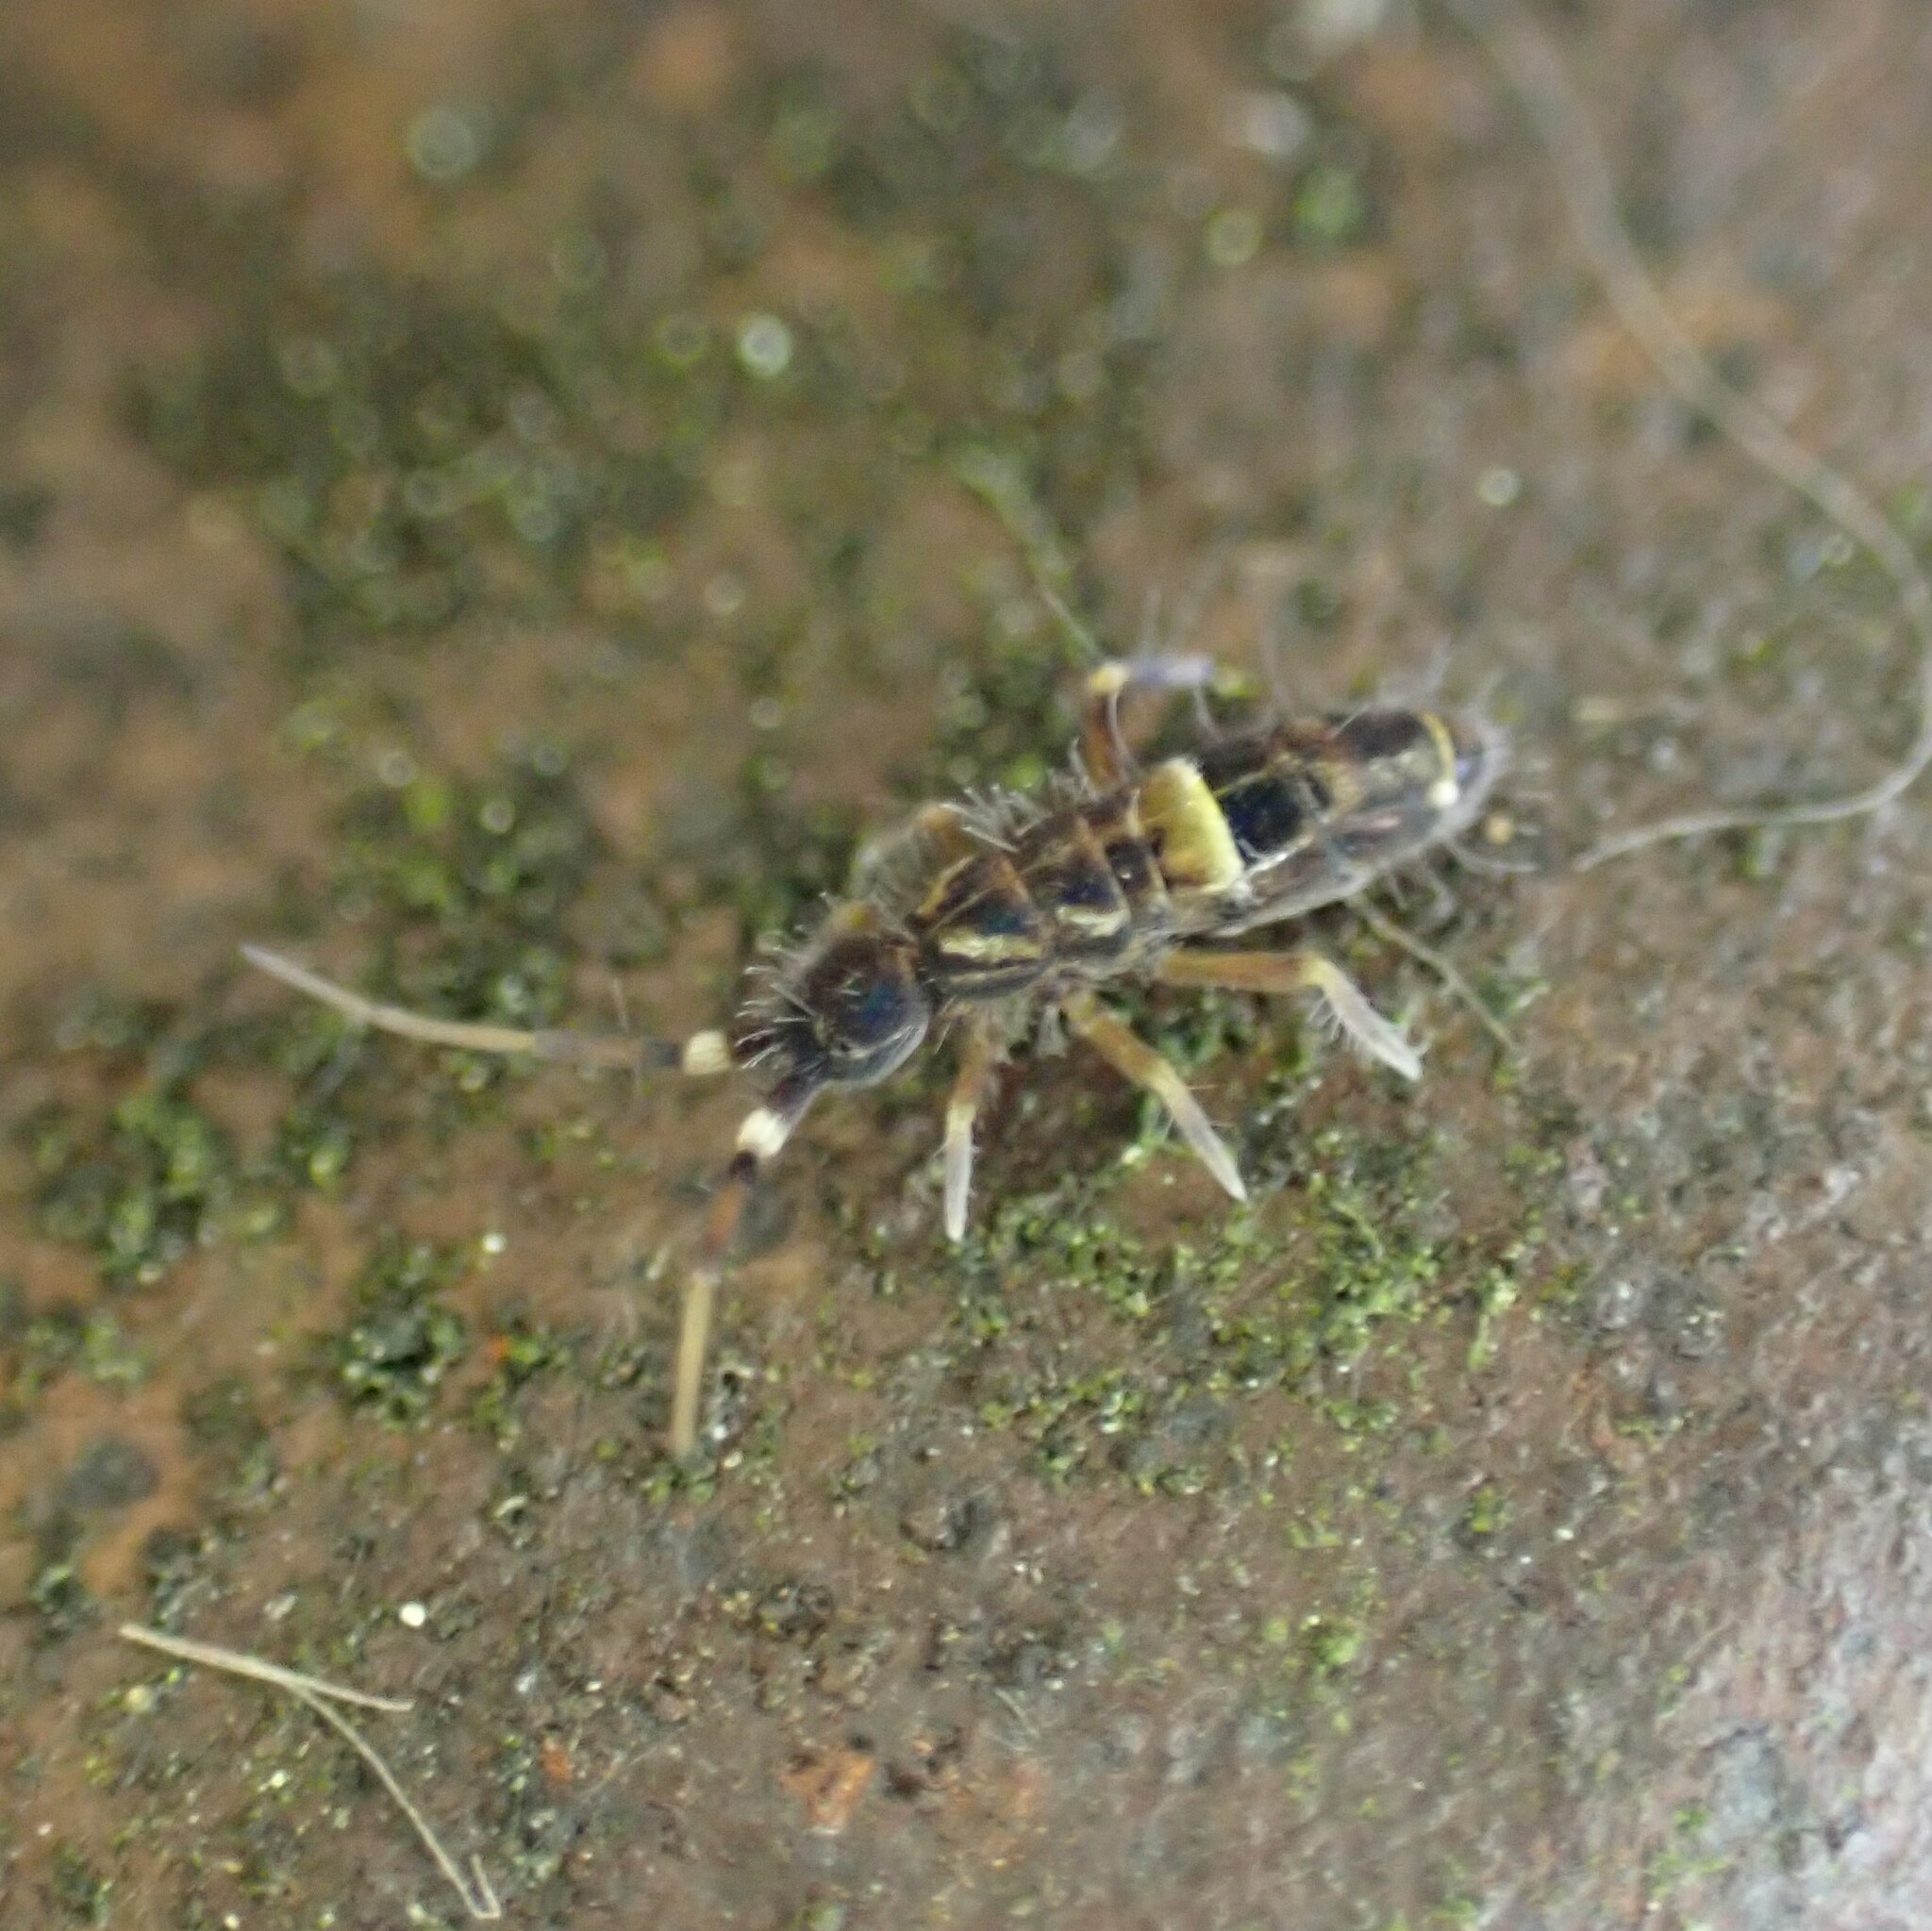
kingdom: Animalia
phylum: Arthropoda
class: Collembola
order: Entomobryomorpha
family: Orchesellidae
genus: Orchesella
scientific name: Orchesella cincta
